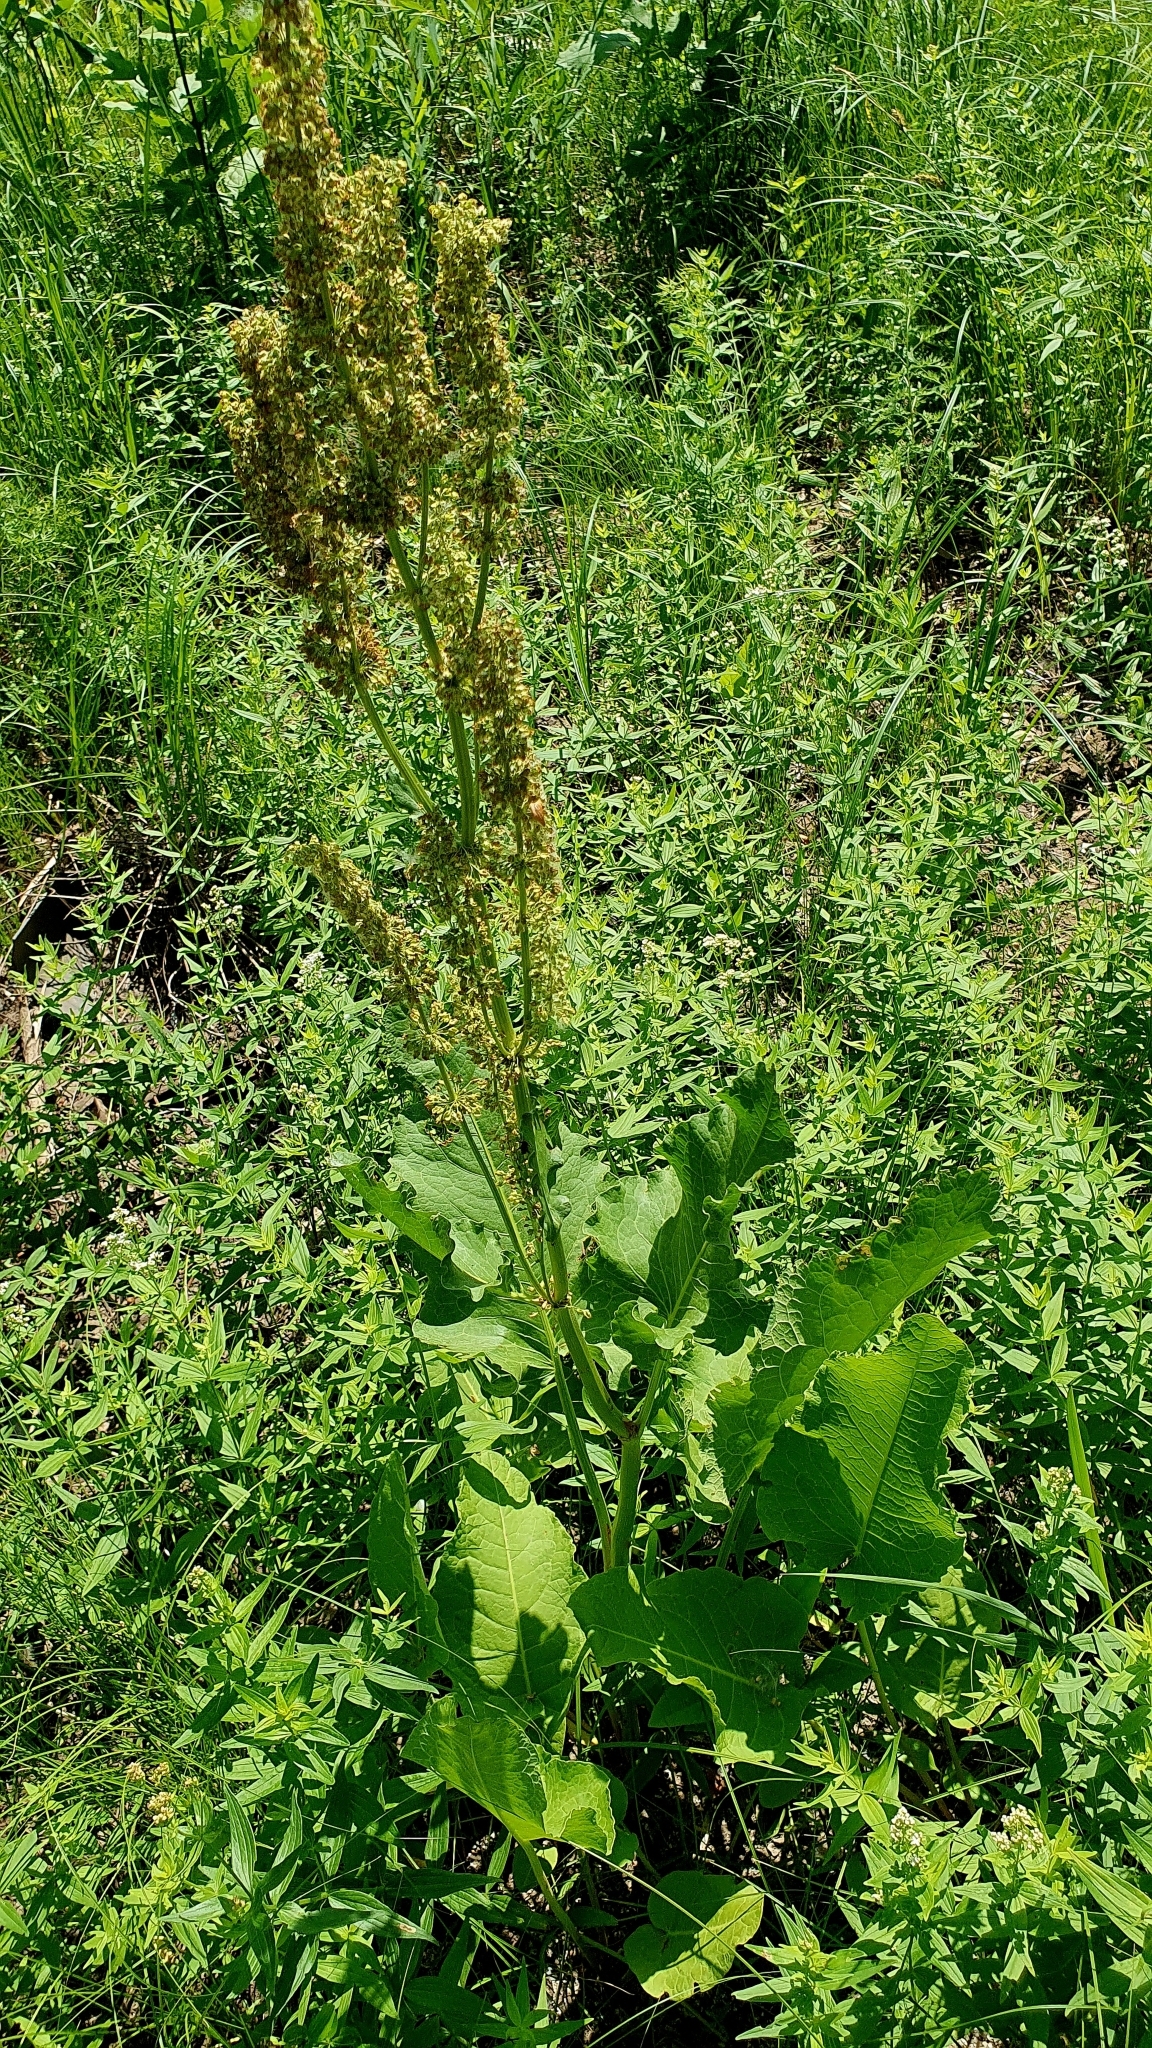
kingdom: Plantae
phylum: Tracheophyta
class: Magnoliopsida
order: Caryophyllales
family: Polygonaceae
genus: Rumex
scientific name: Rumex confertus
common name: Russian dock
